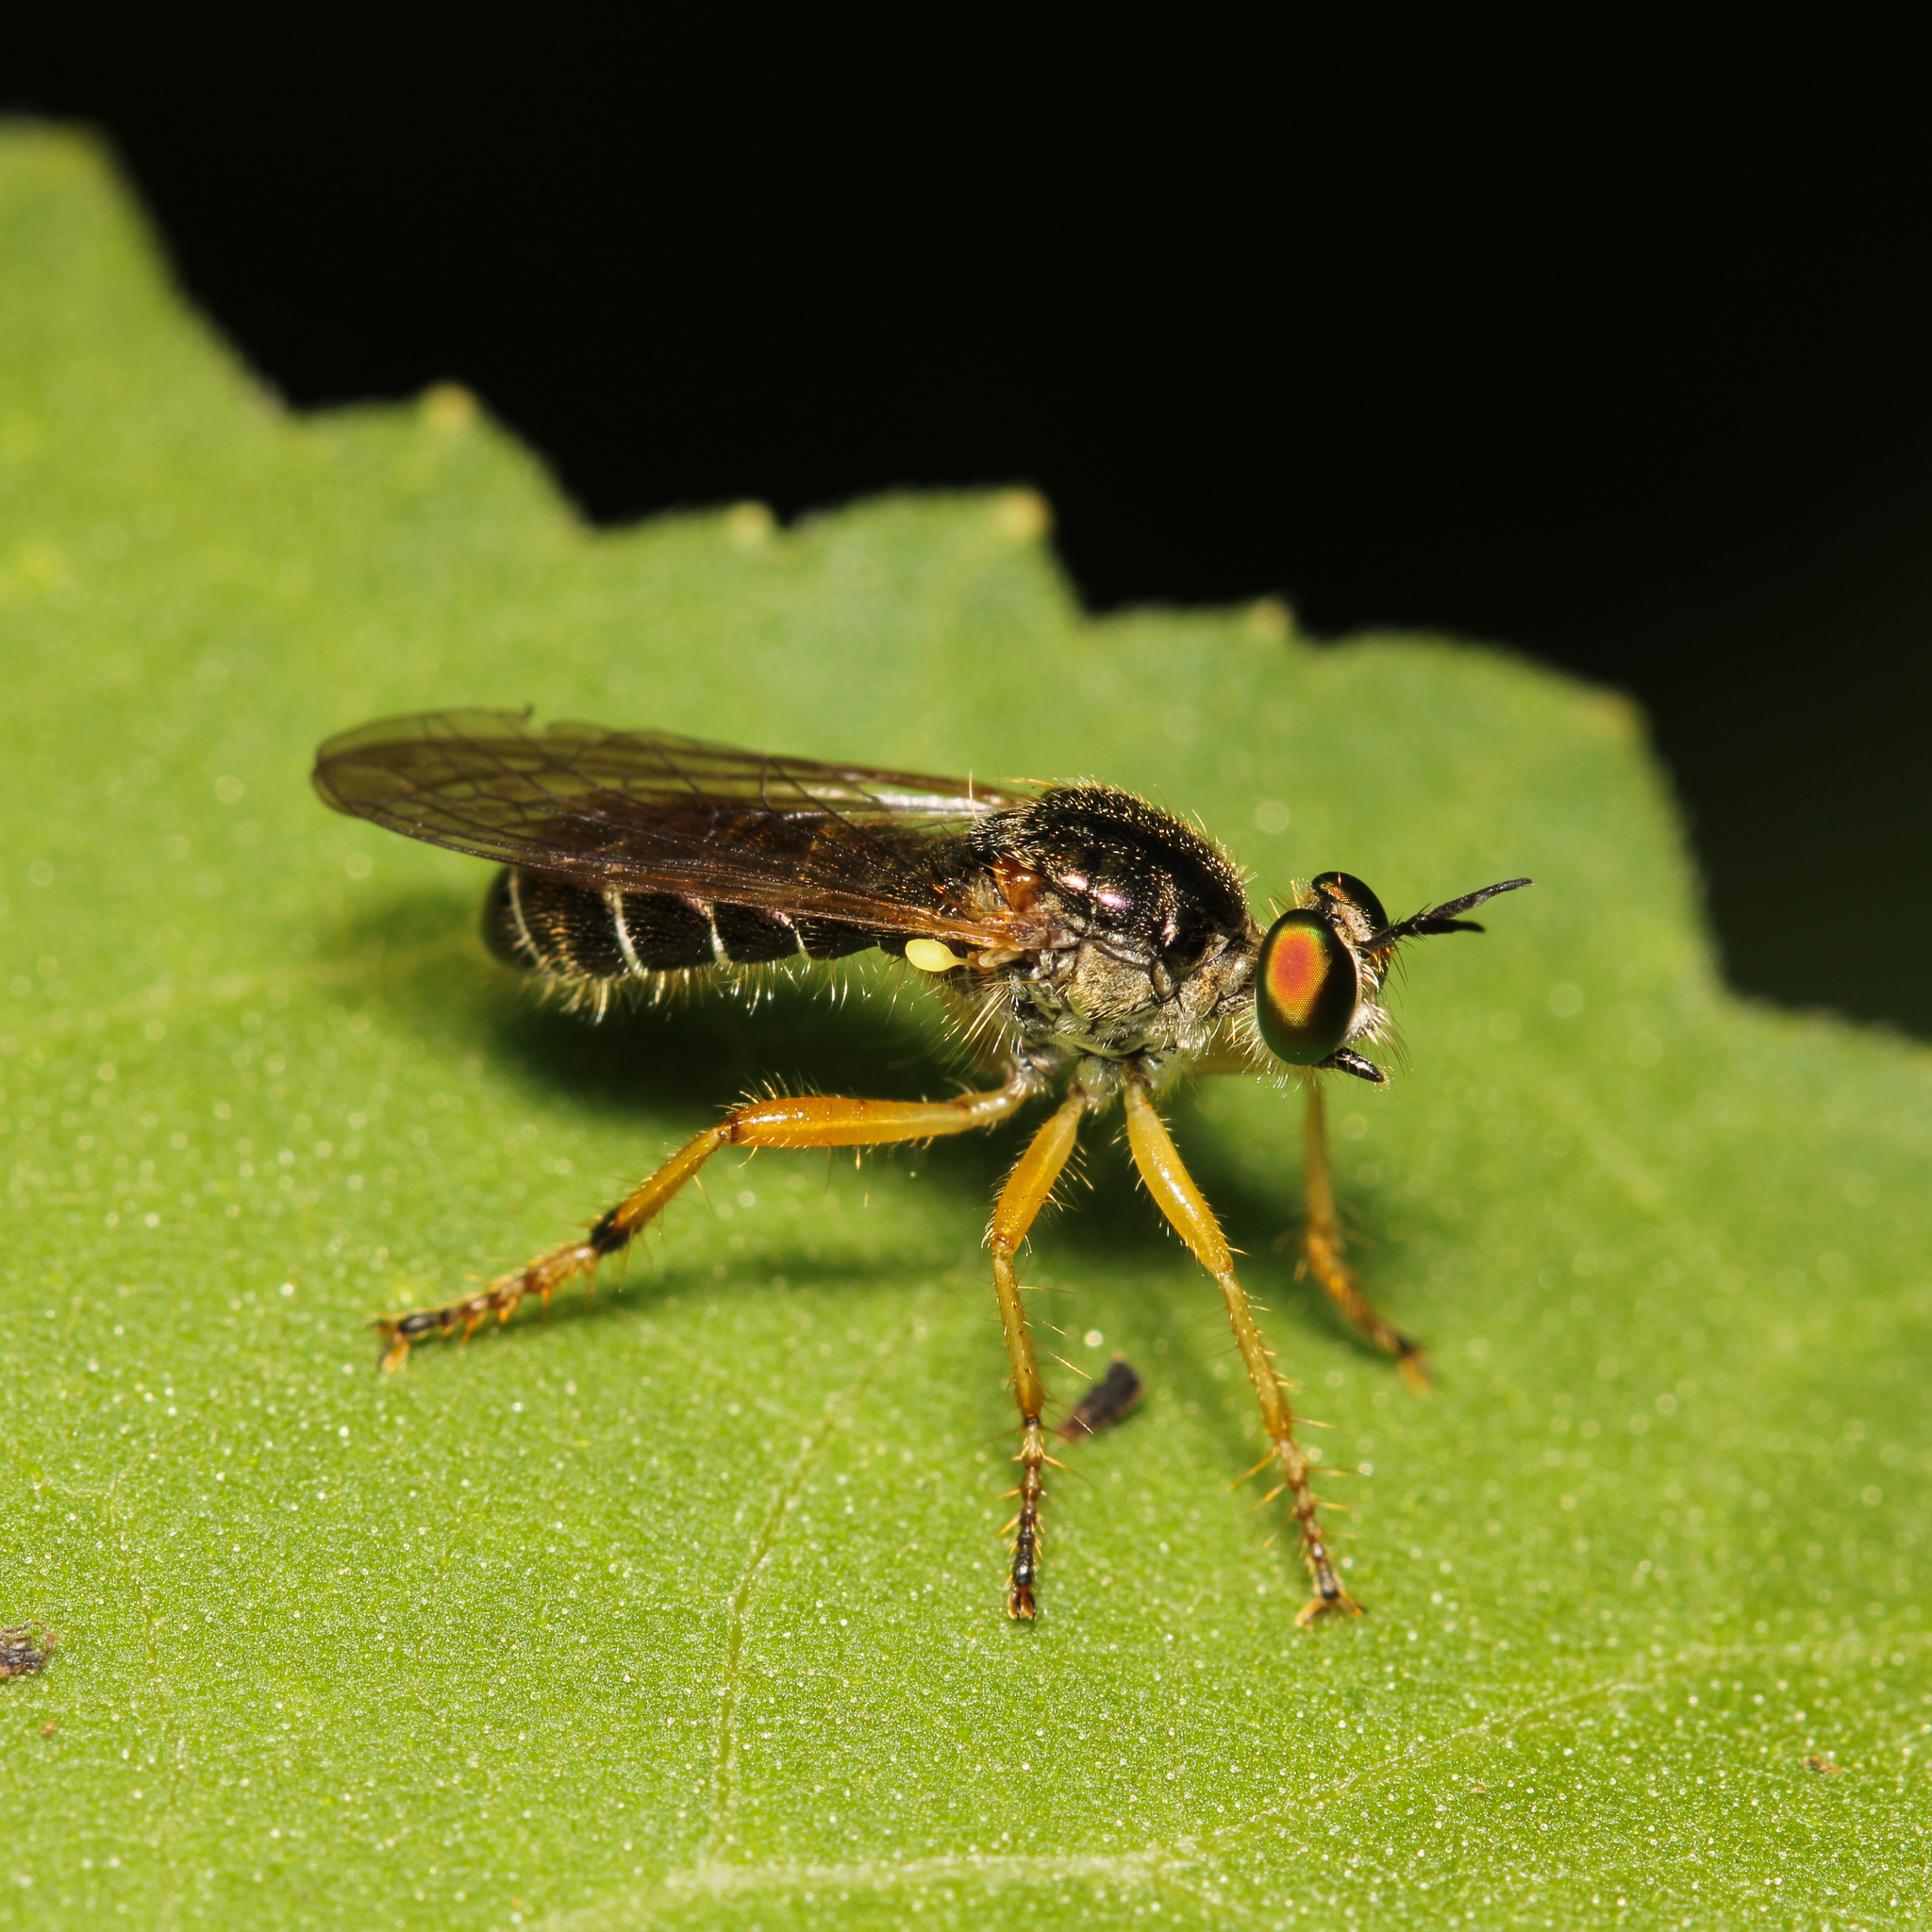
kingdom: Animalia
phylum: Arthropoda
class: Insecta
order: Diptera
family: Asilidae
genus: Atomosia
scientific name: Atomosia rufipes
